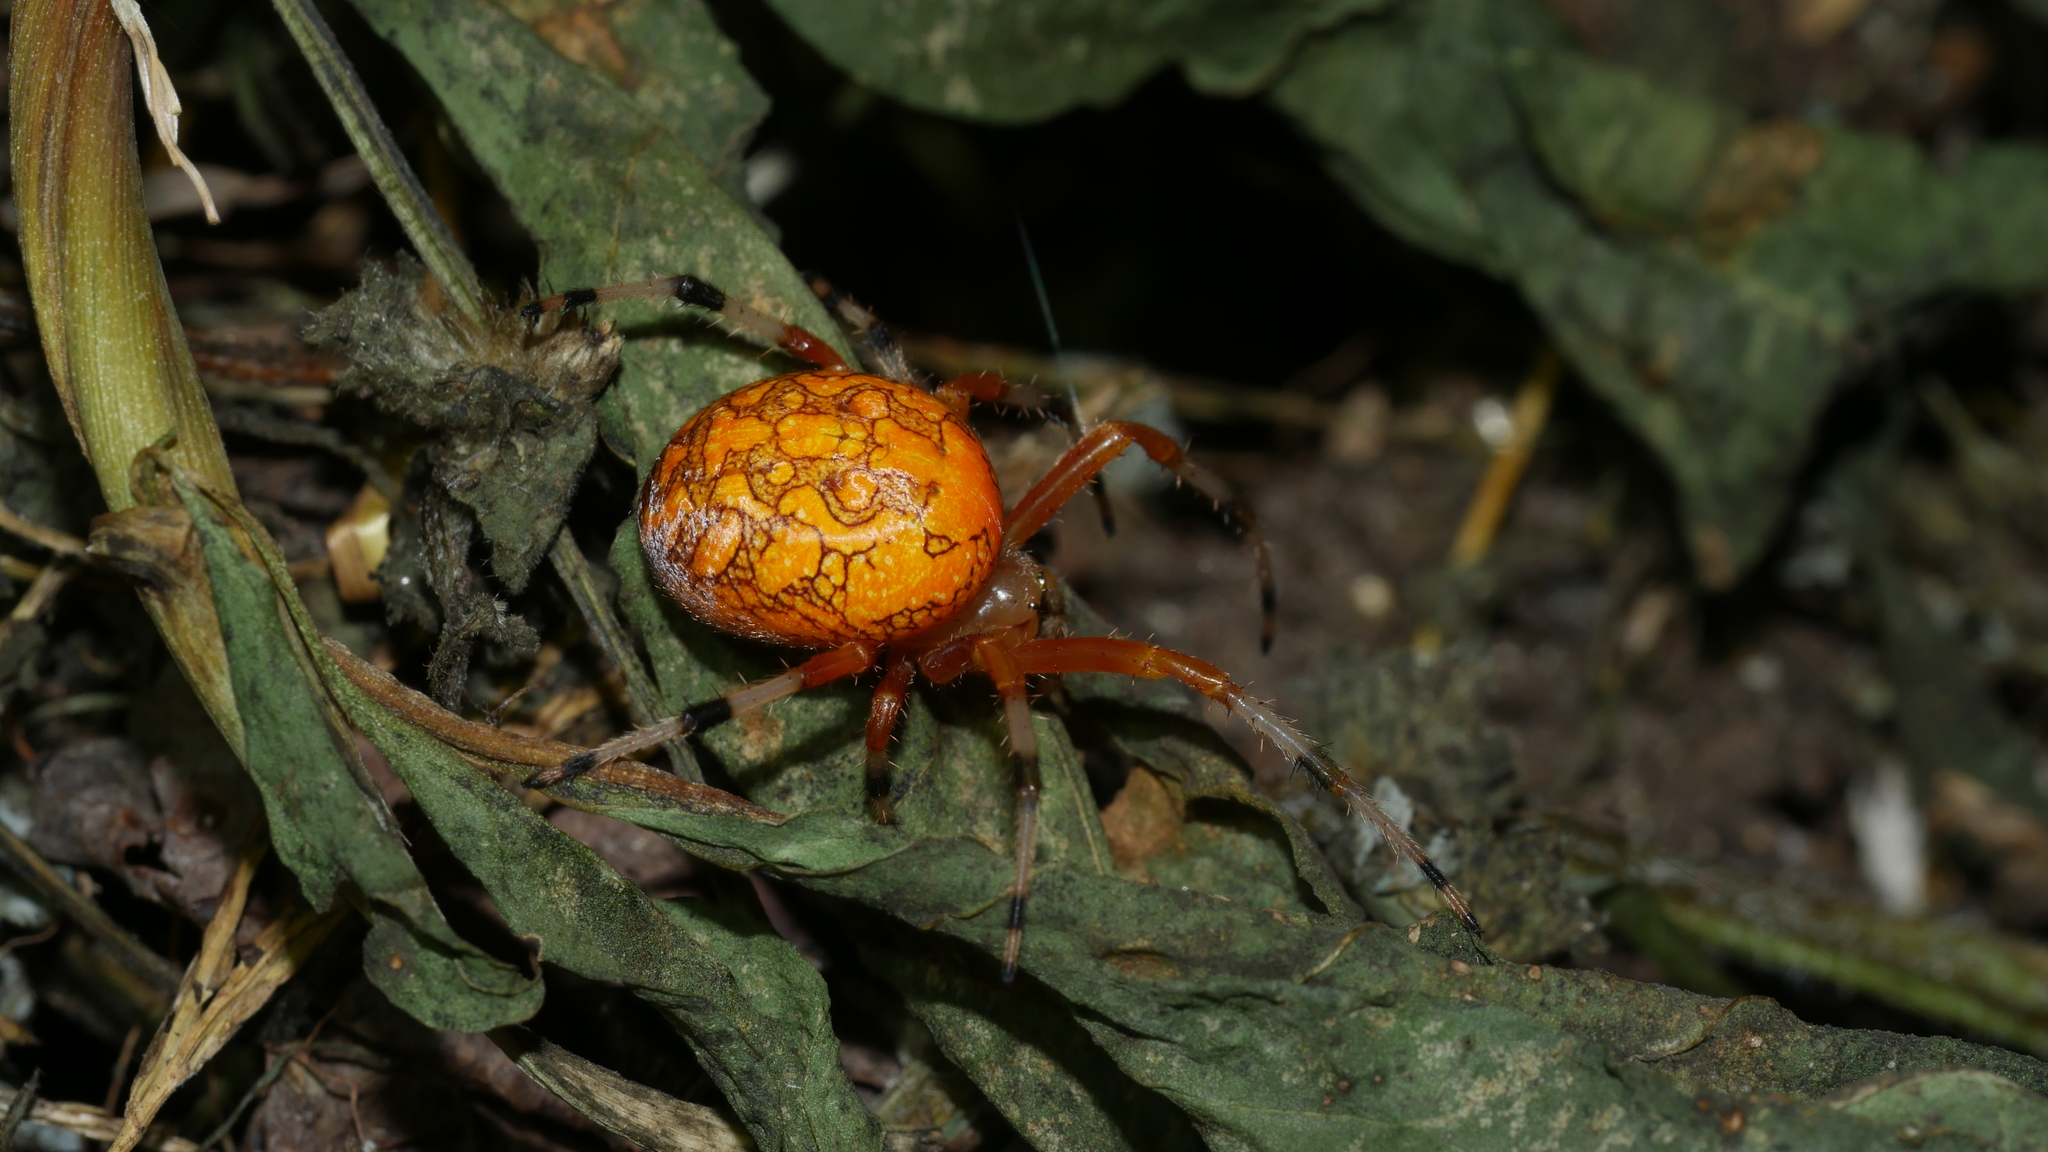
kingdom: Animalia
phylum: Arthropoda
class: Arachnida
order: Araneae
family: Araneidae
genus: Araneus
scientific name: Araneus marmoreus
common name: Marbled orbweaver
